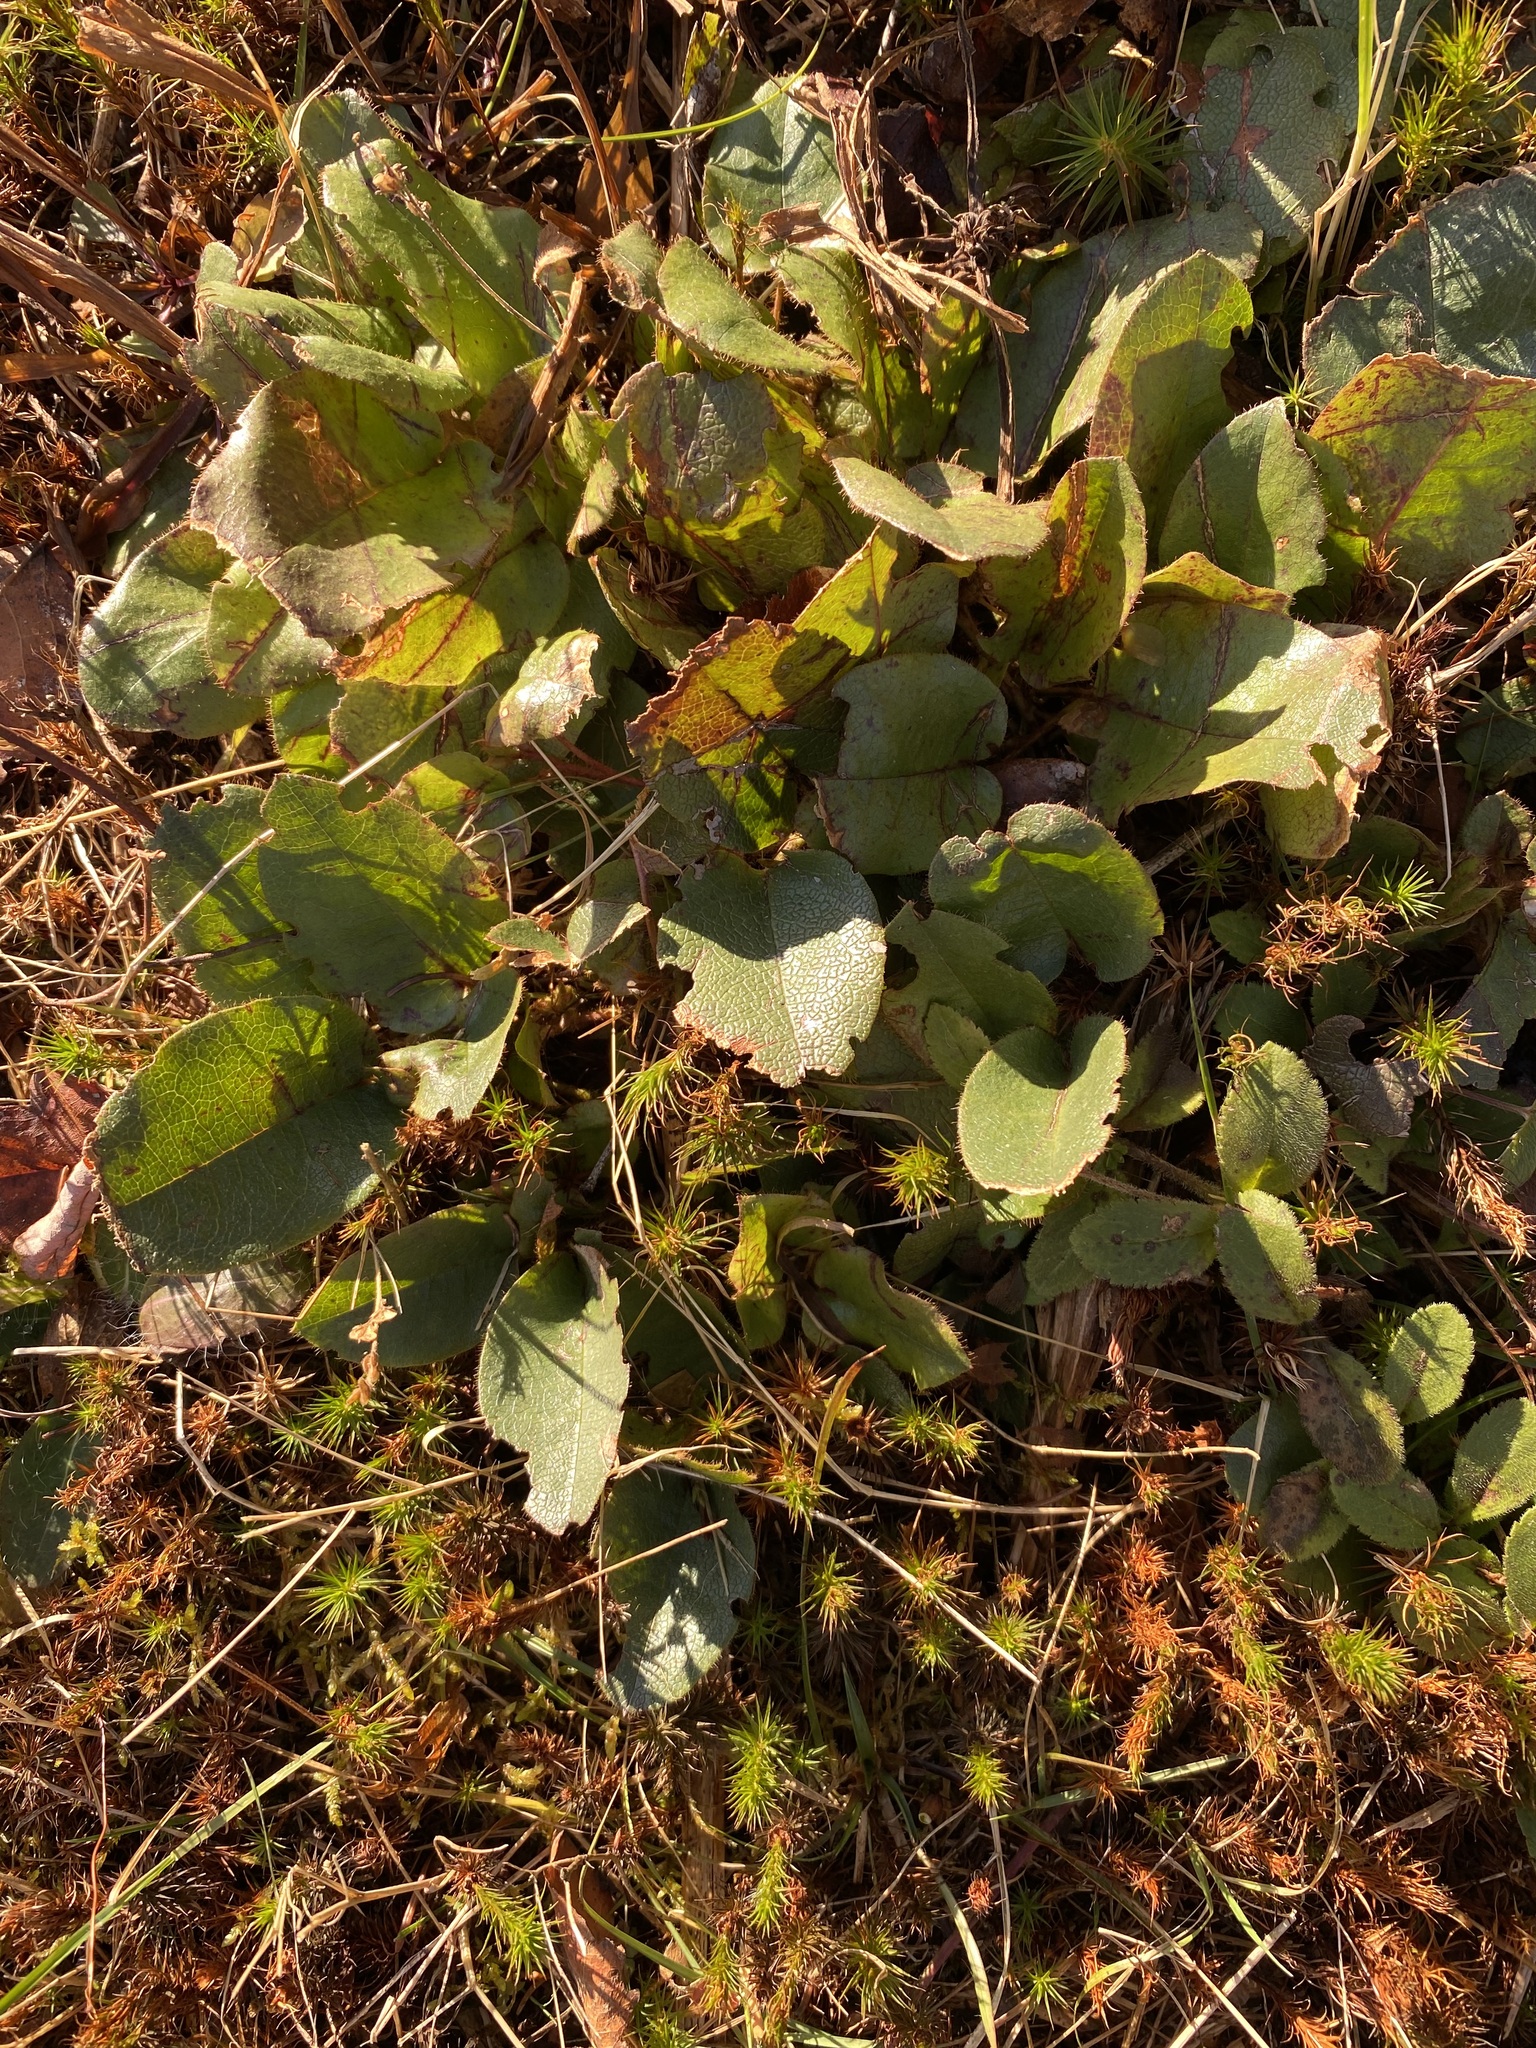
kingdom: Plantae
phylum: Tracheophyta
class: Magnoliopsida
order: Ericales
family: Ericaceae
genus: Epigaea
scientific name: Epigaea repens
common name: Gravelroot
